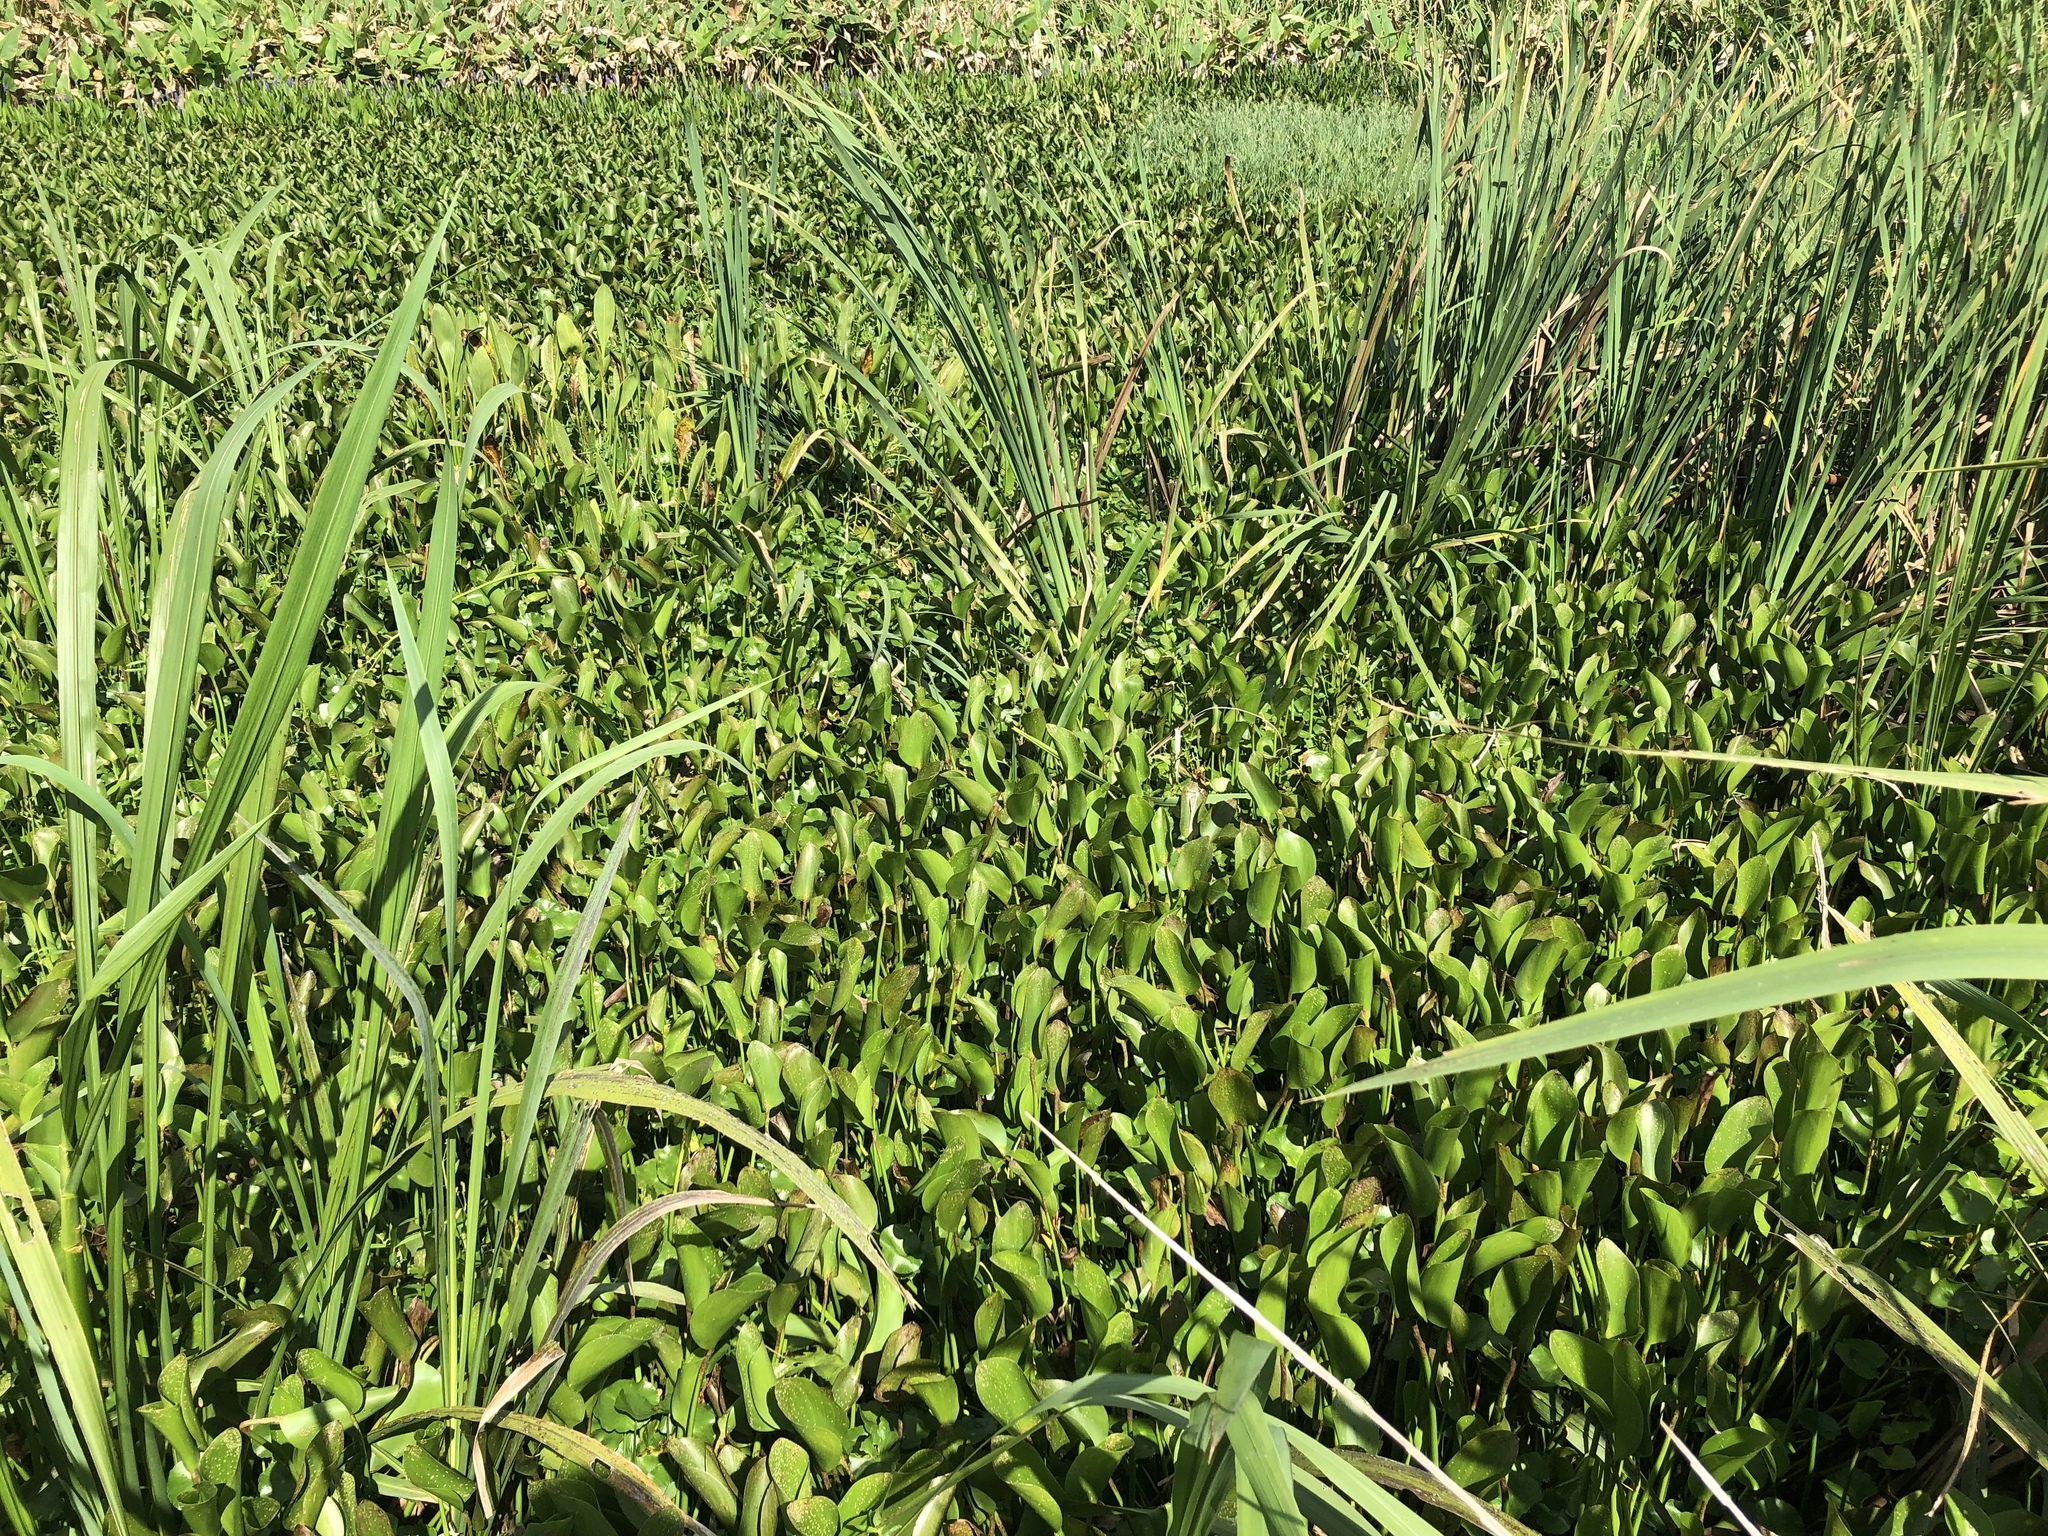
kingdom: Plantae
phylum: Tracheophyta
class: Liliopsida
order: Commelinales
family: Pontederiaceae
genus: Pontederia
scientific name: Pontederia crassipes
